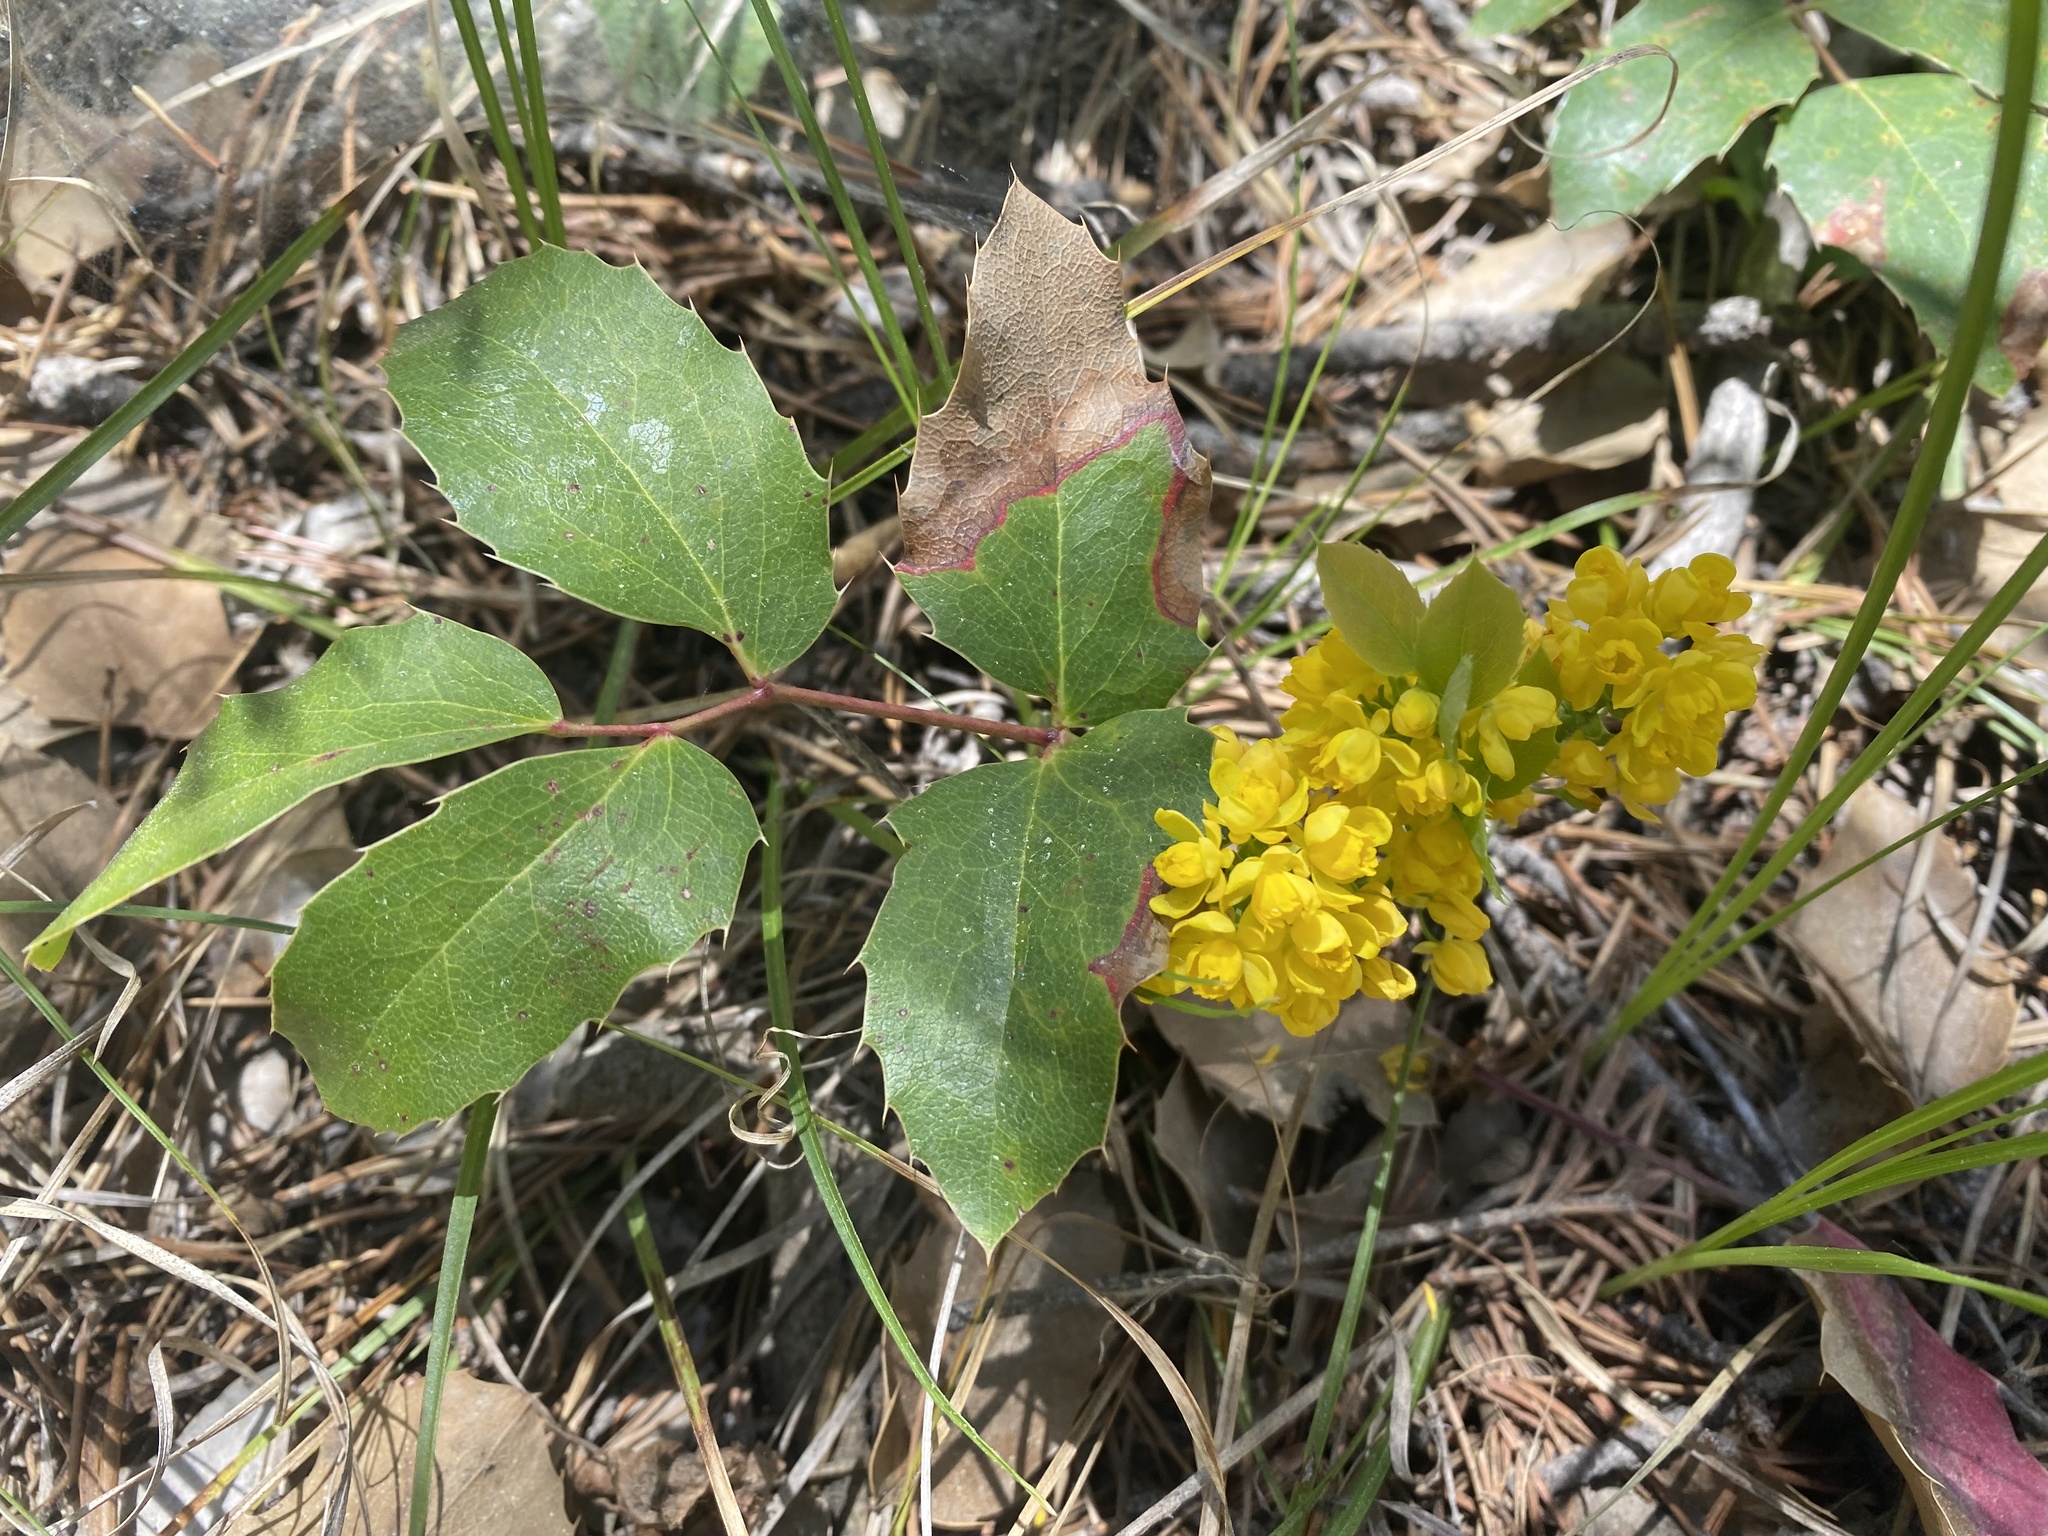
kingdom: Plantae
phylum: Tracheophyta
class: Magnoliopsida
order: Ranunculales
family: Berberidaceae
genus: Mahonia
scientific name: Mahonia repens
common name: Creeping oregon-grape
